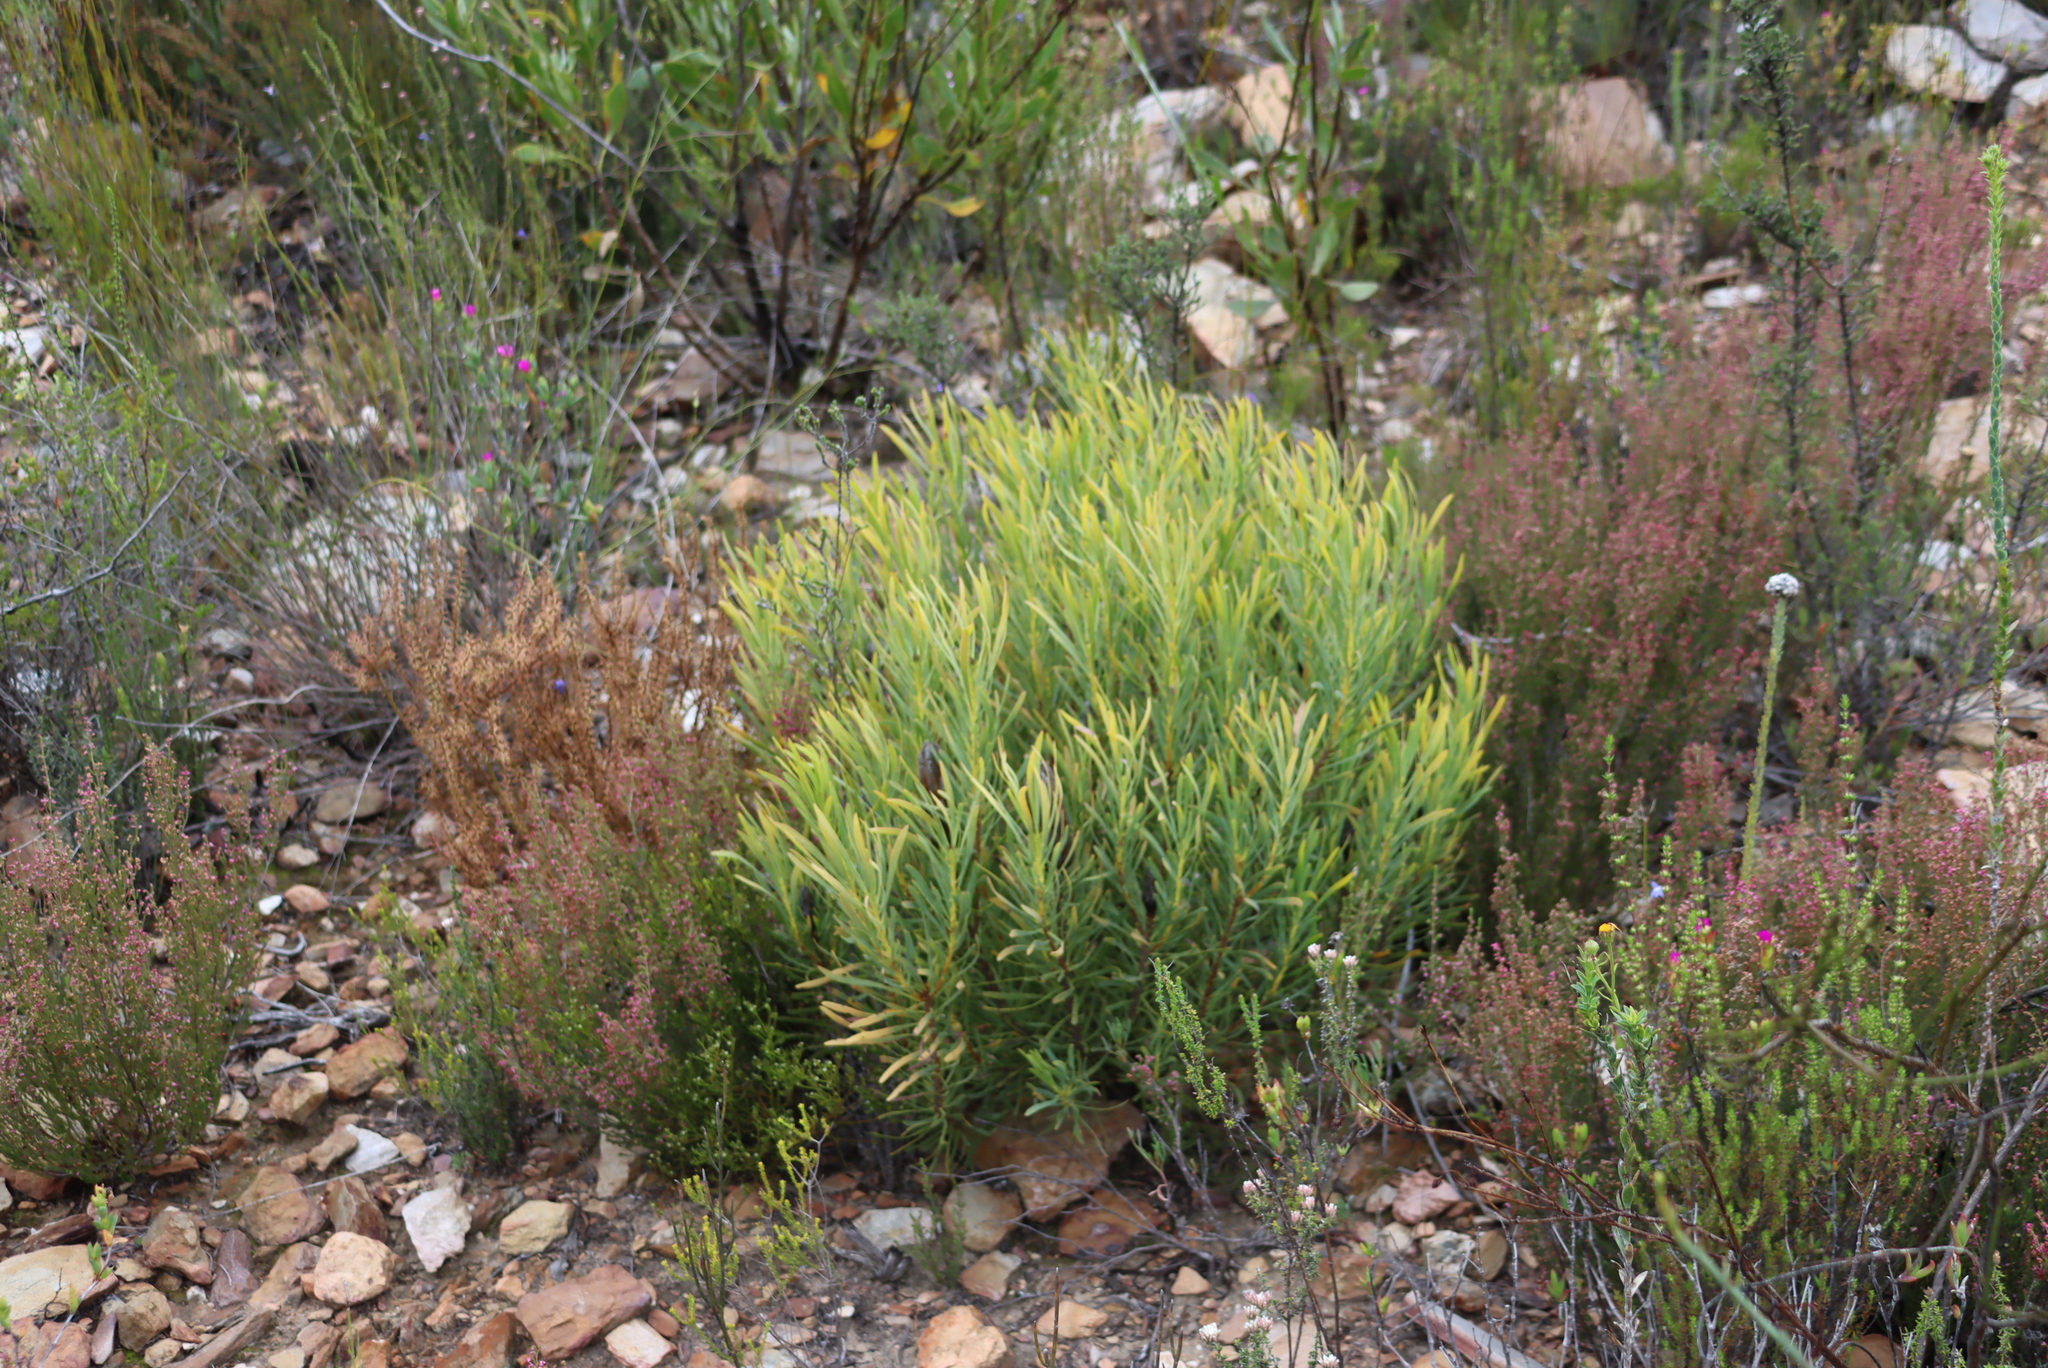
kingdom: Plantae
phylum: Tracheophyta
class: Magnoliopsida
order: Proteales
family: Proteaceae
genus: Leucadendron
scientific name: Leucadendron salignum
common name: Common sunshine conebush
